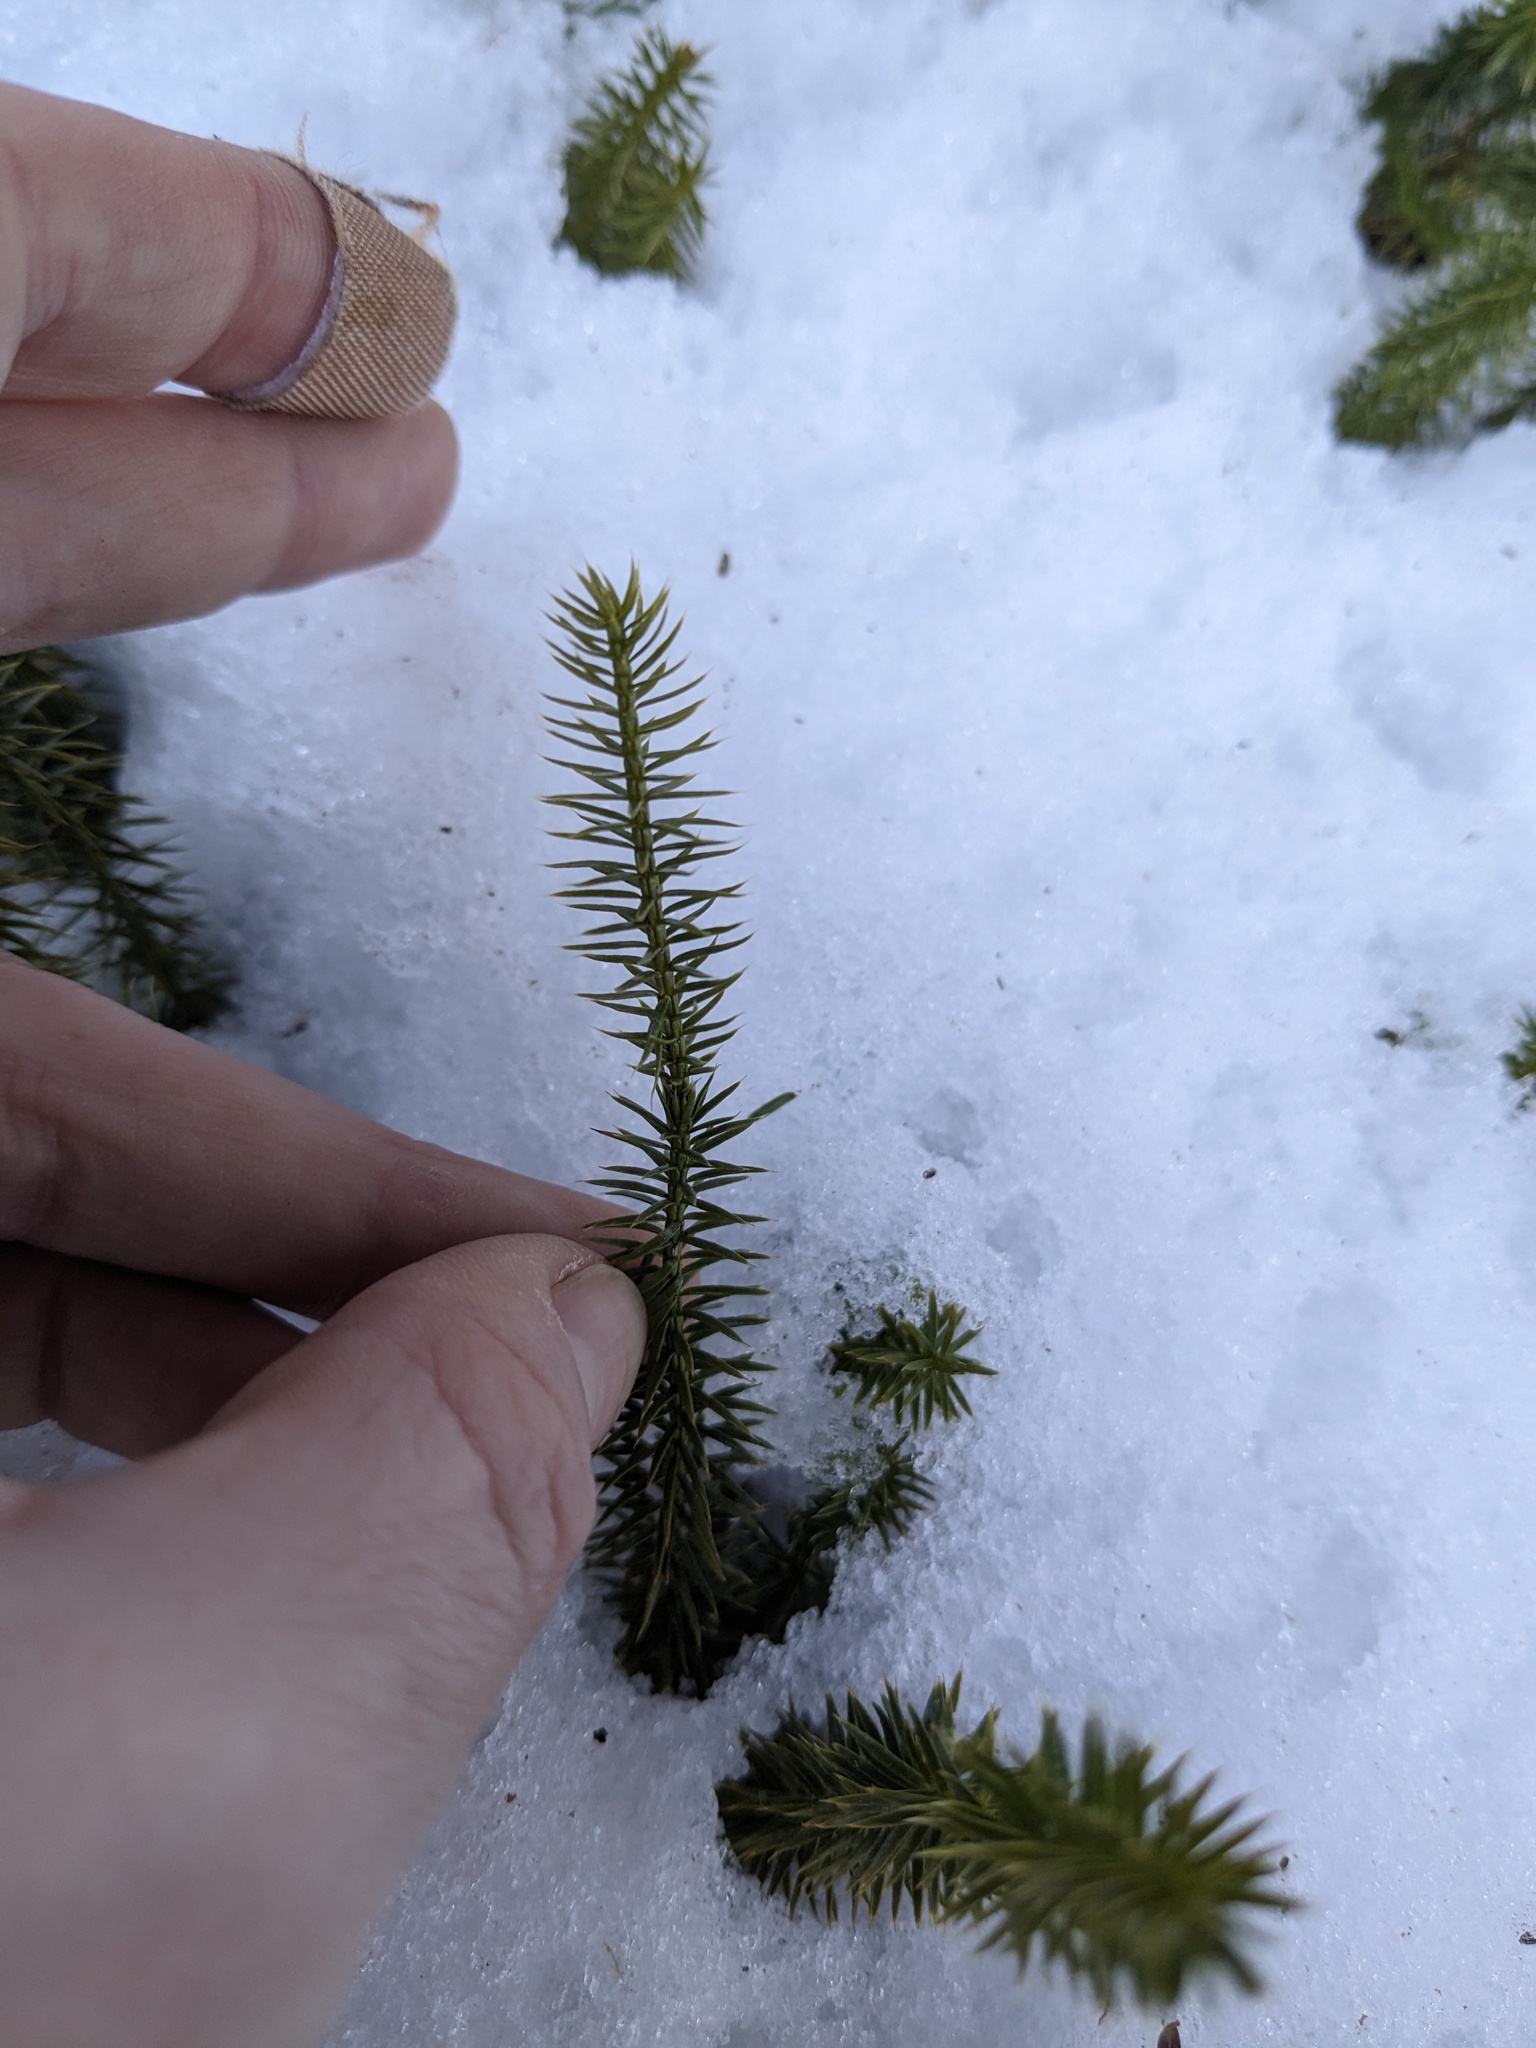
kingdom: Plantae
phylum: Tracheophyta
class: Lycopodiopsida
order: Lycopodiales
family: Lycopodiaceae
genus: Spinulum
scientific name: Spinulum annotinum
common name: Interrupted club-moss
